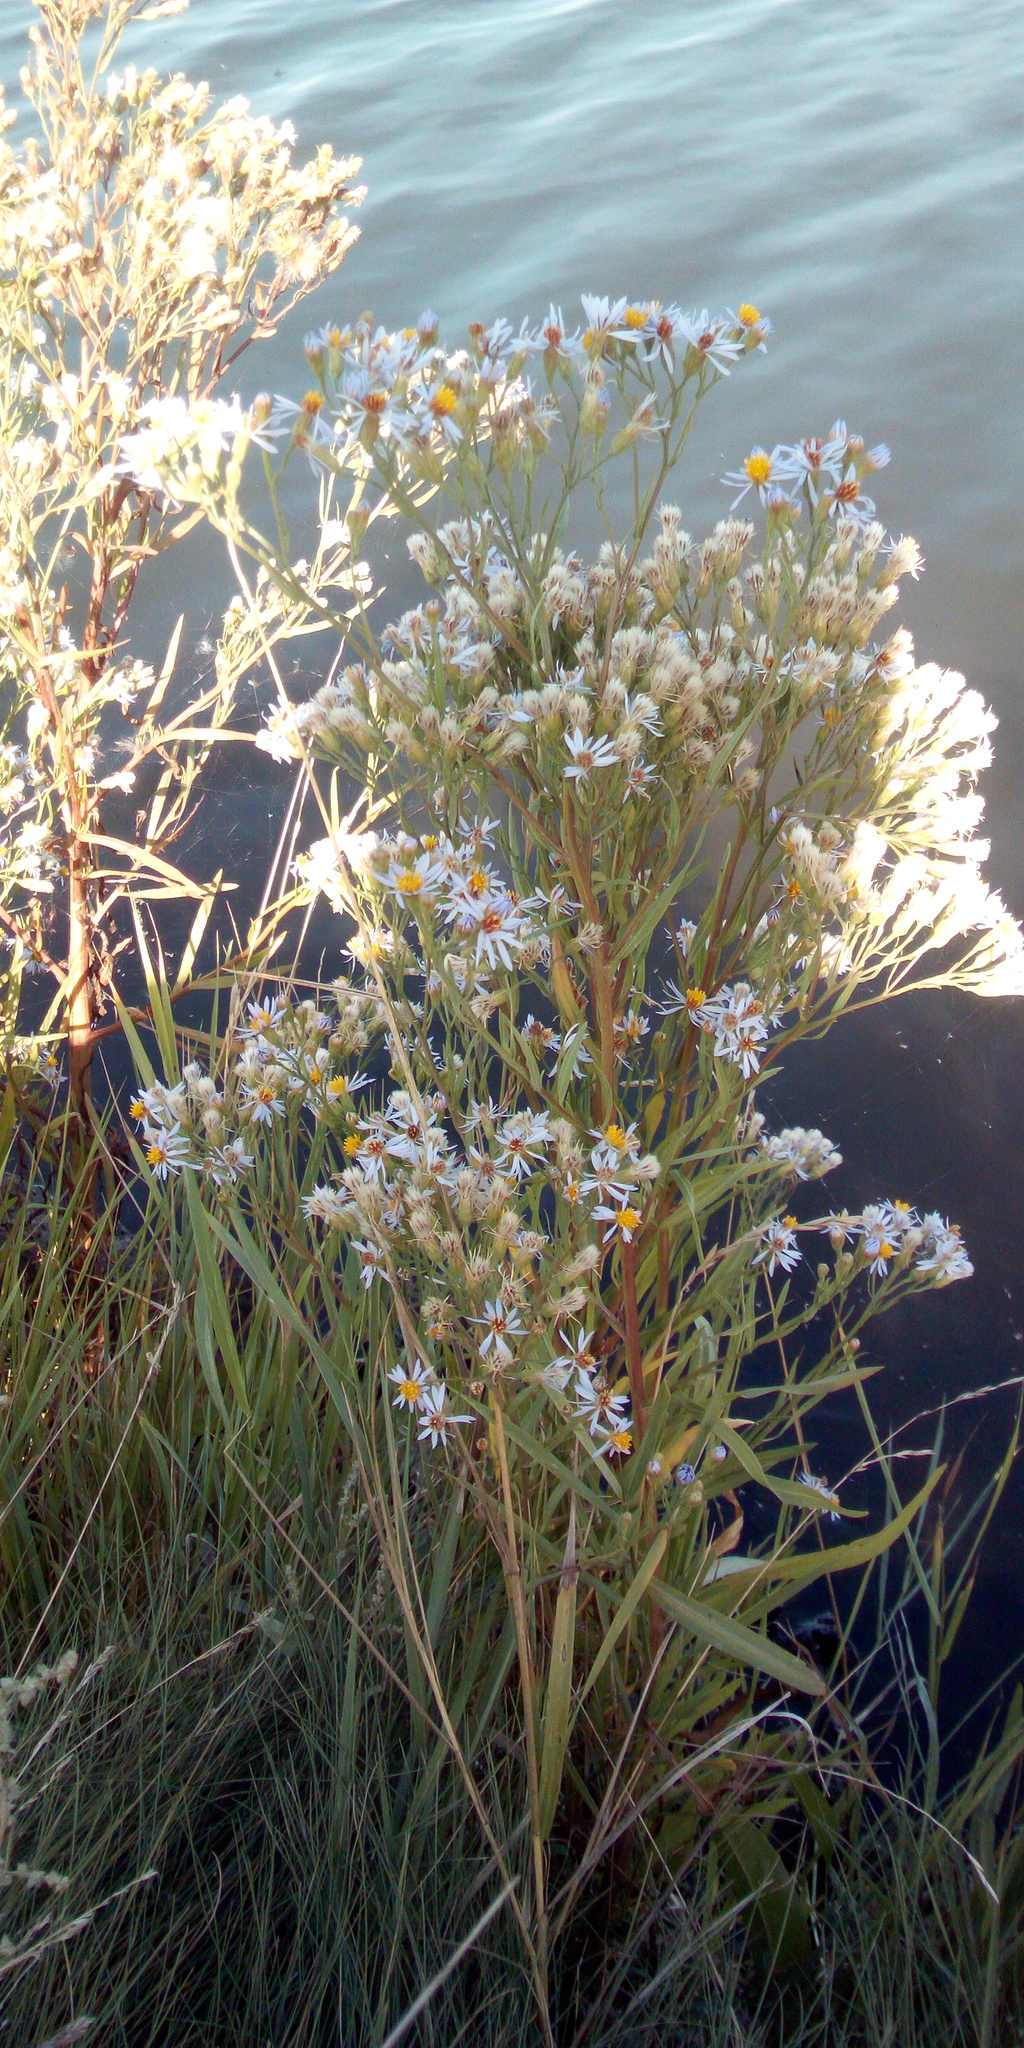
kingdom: Plantae
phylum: Tracheophyta
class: Magnoliopsida
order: Asterales
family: Asteraceae
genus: Tripolium
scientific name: Tripolium pannonicum
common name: Sea aster
